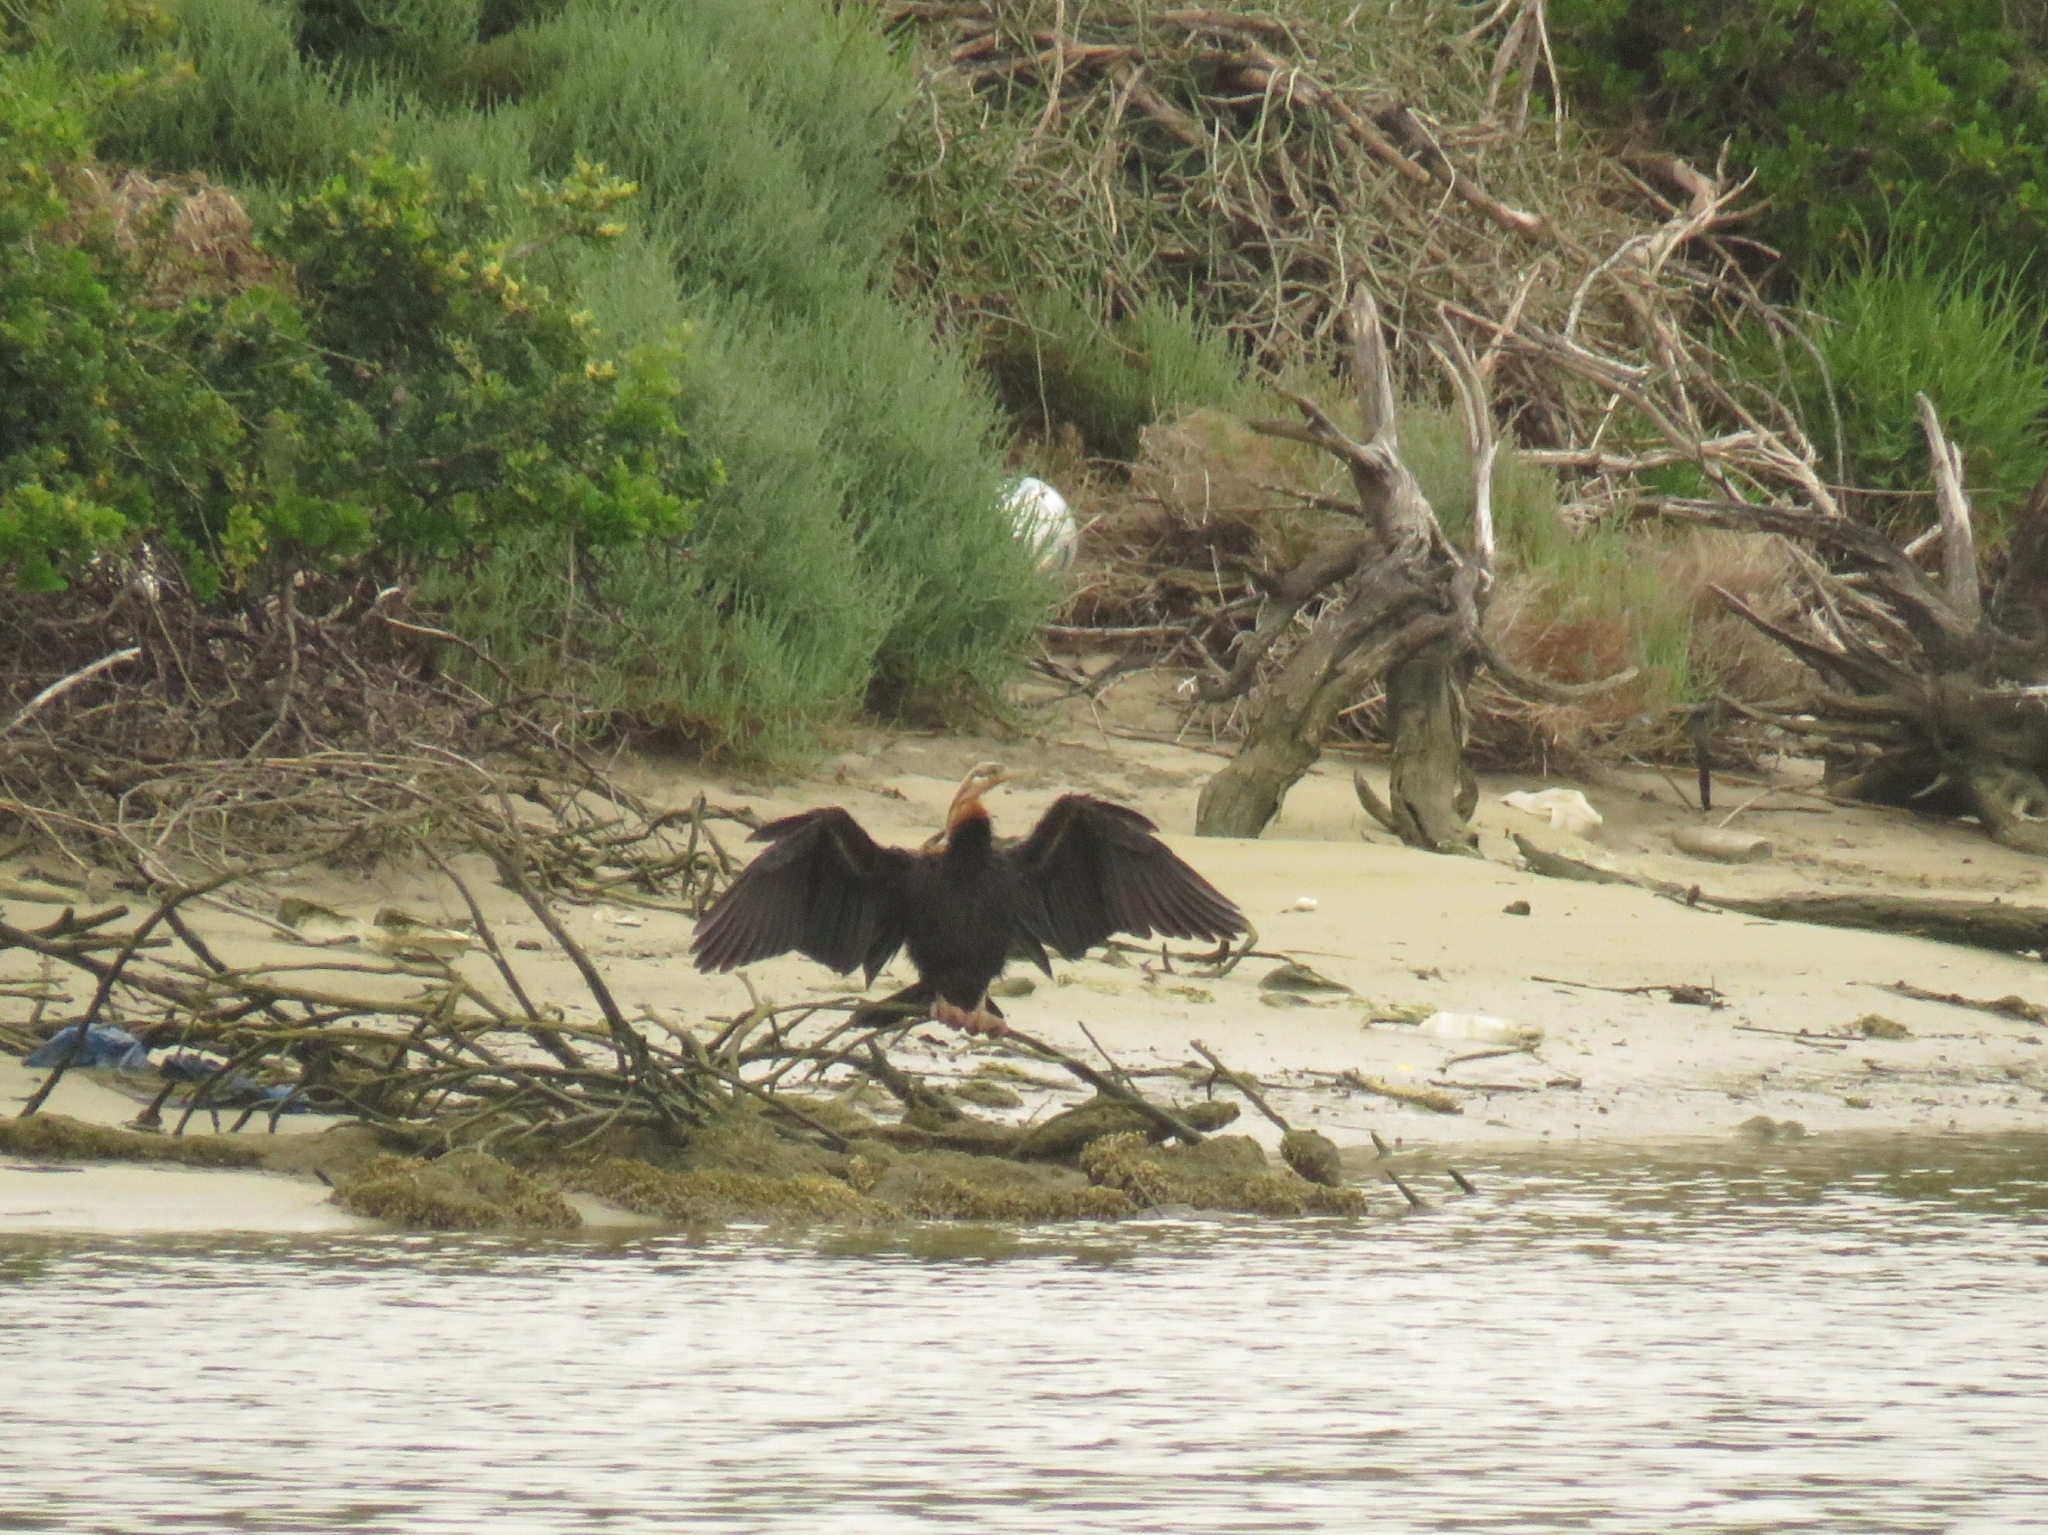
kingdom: Animalia
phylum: Chordata
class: Aves
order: Suliformes
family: Anhingidae
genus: Anhinga
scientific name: Anhinga rufa
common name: African darter
